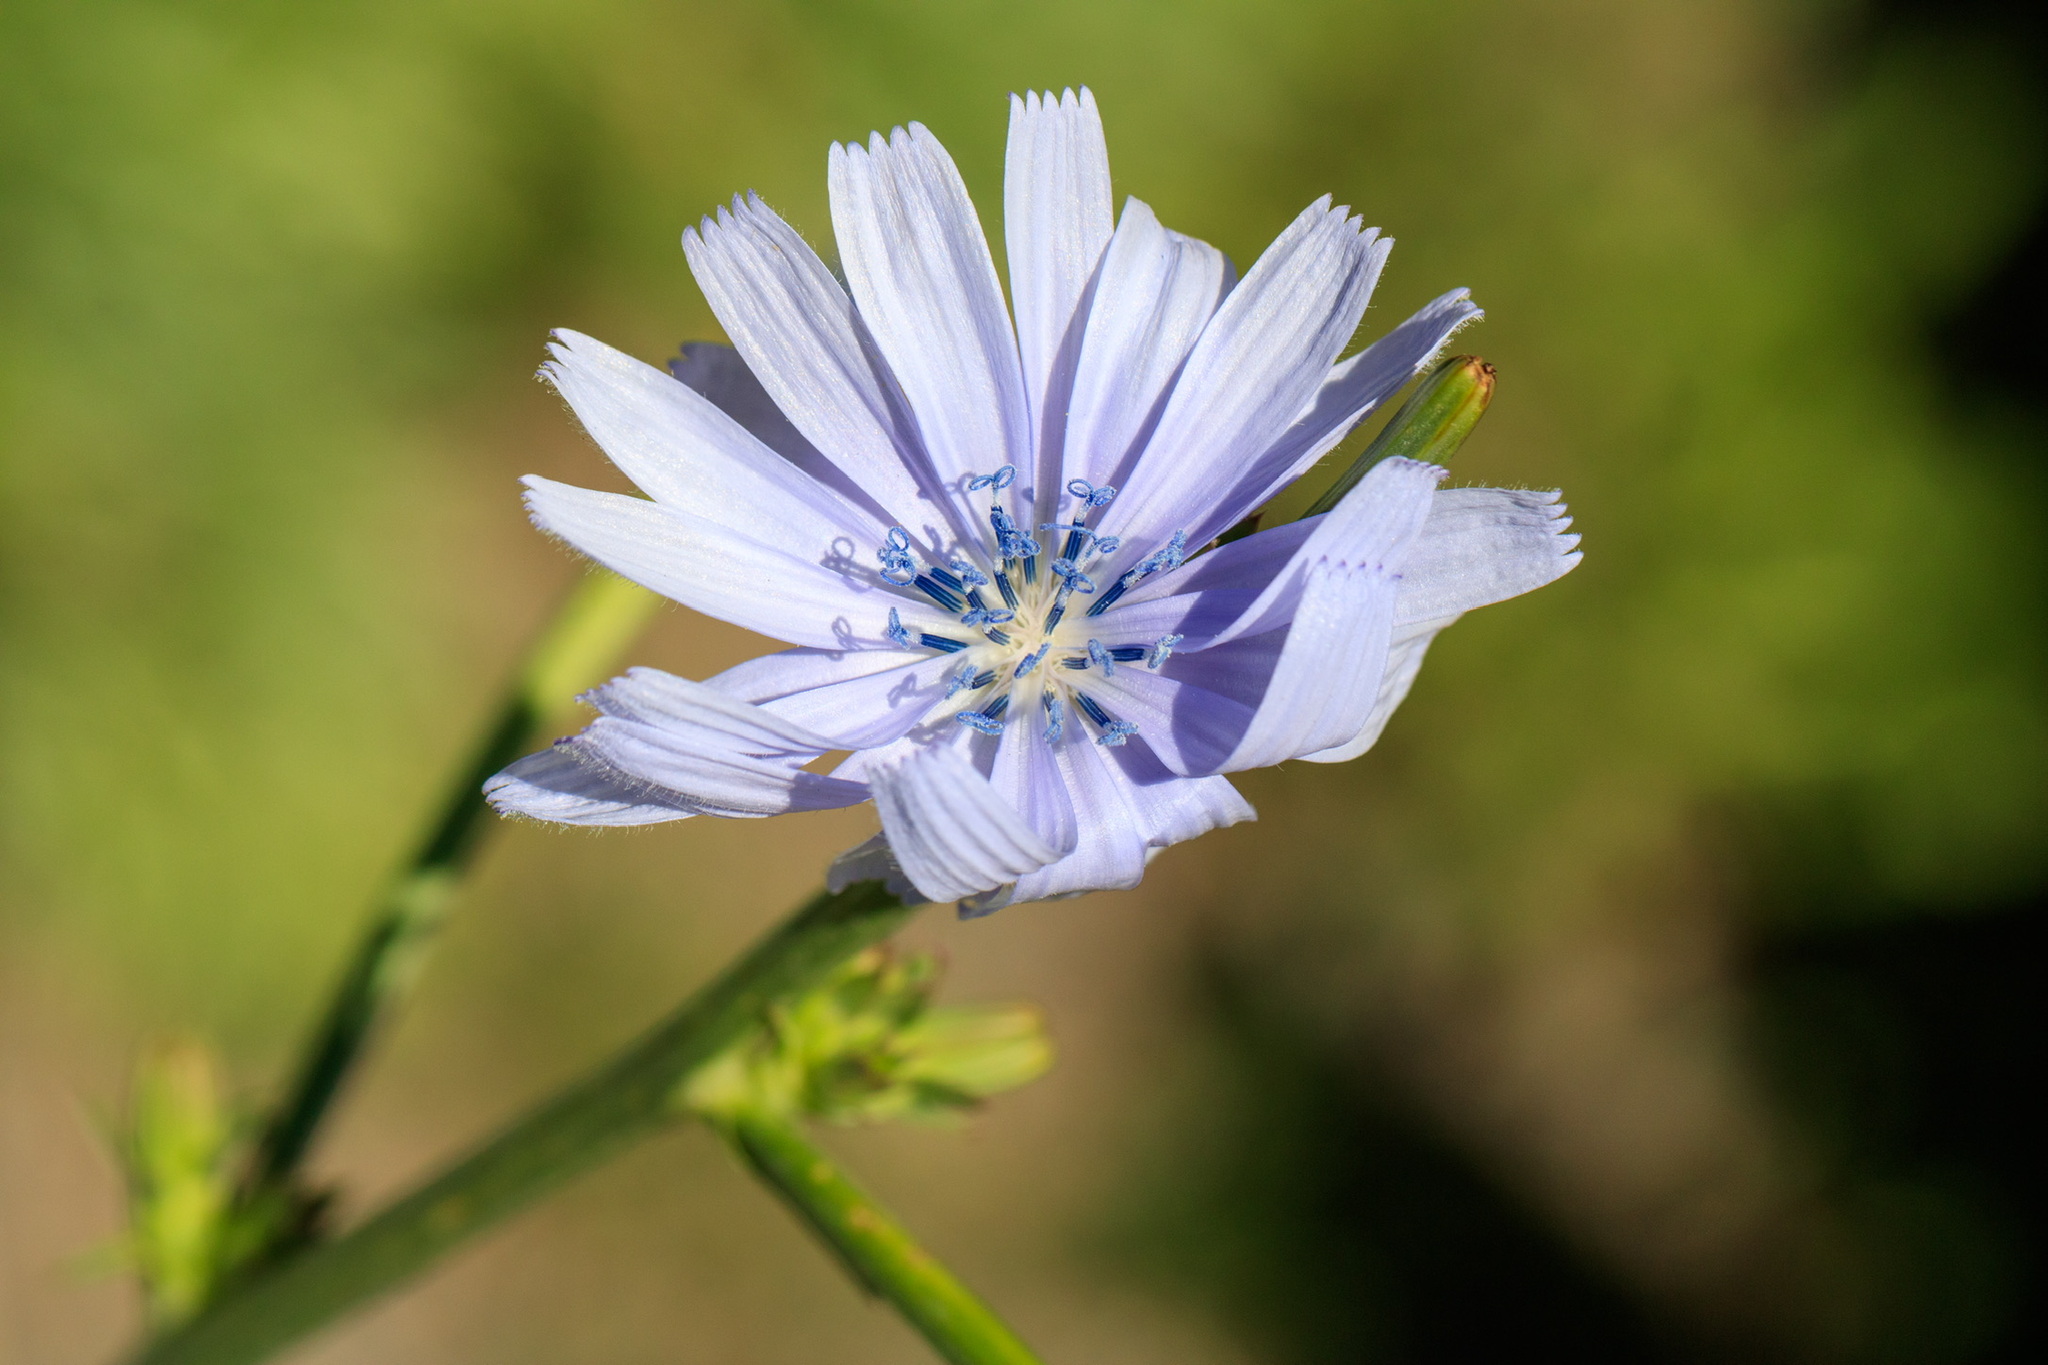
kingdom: Plantae
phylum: Tracheophyta
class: Magnoliopsida
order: Asterales
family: Asteraceae
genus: Cichorium
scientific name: Cichorium intybus
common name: Chicory
